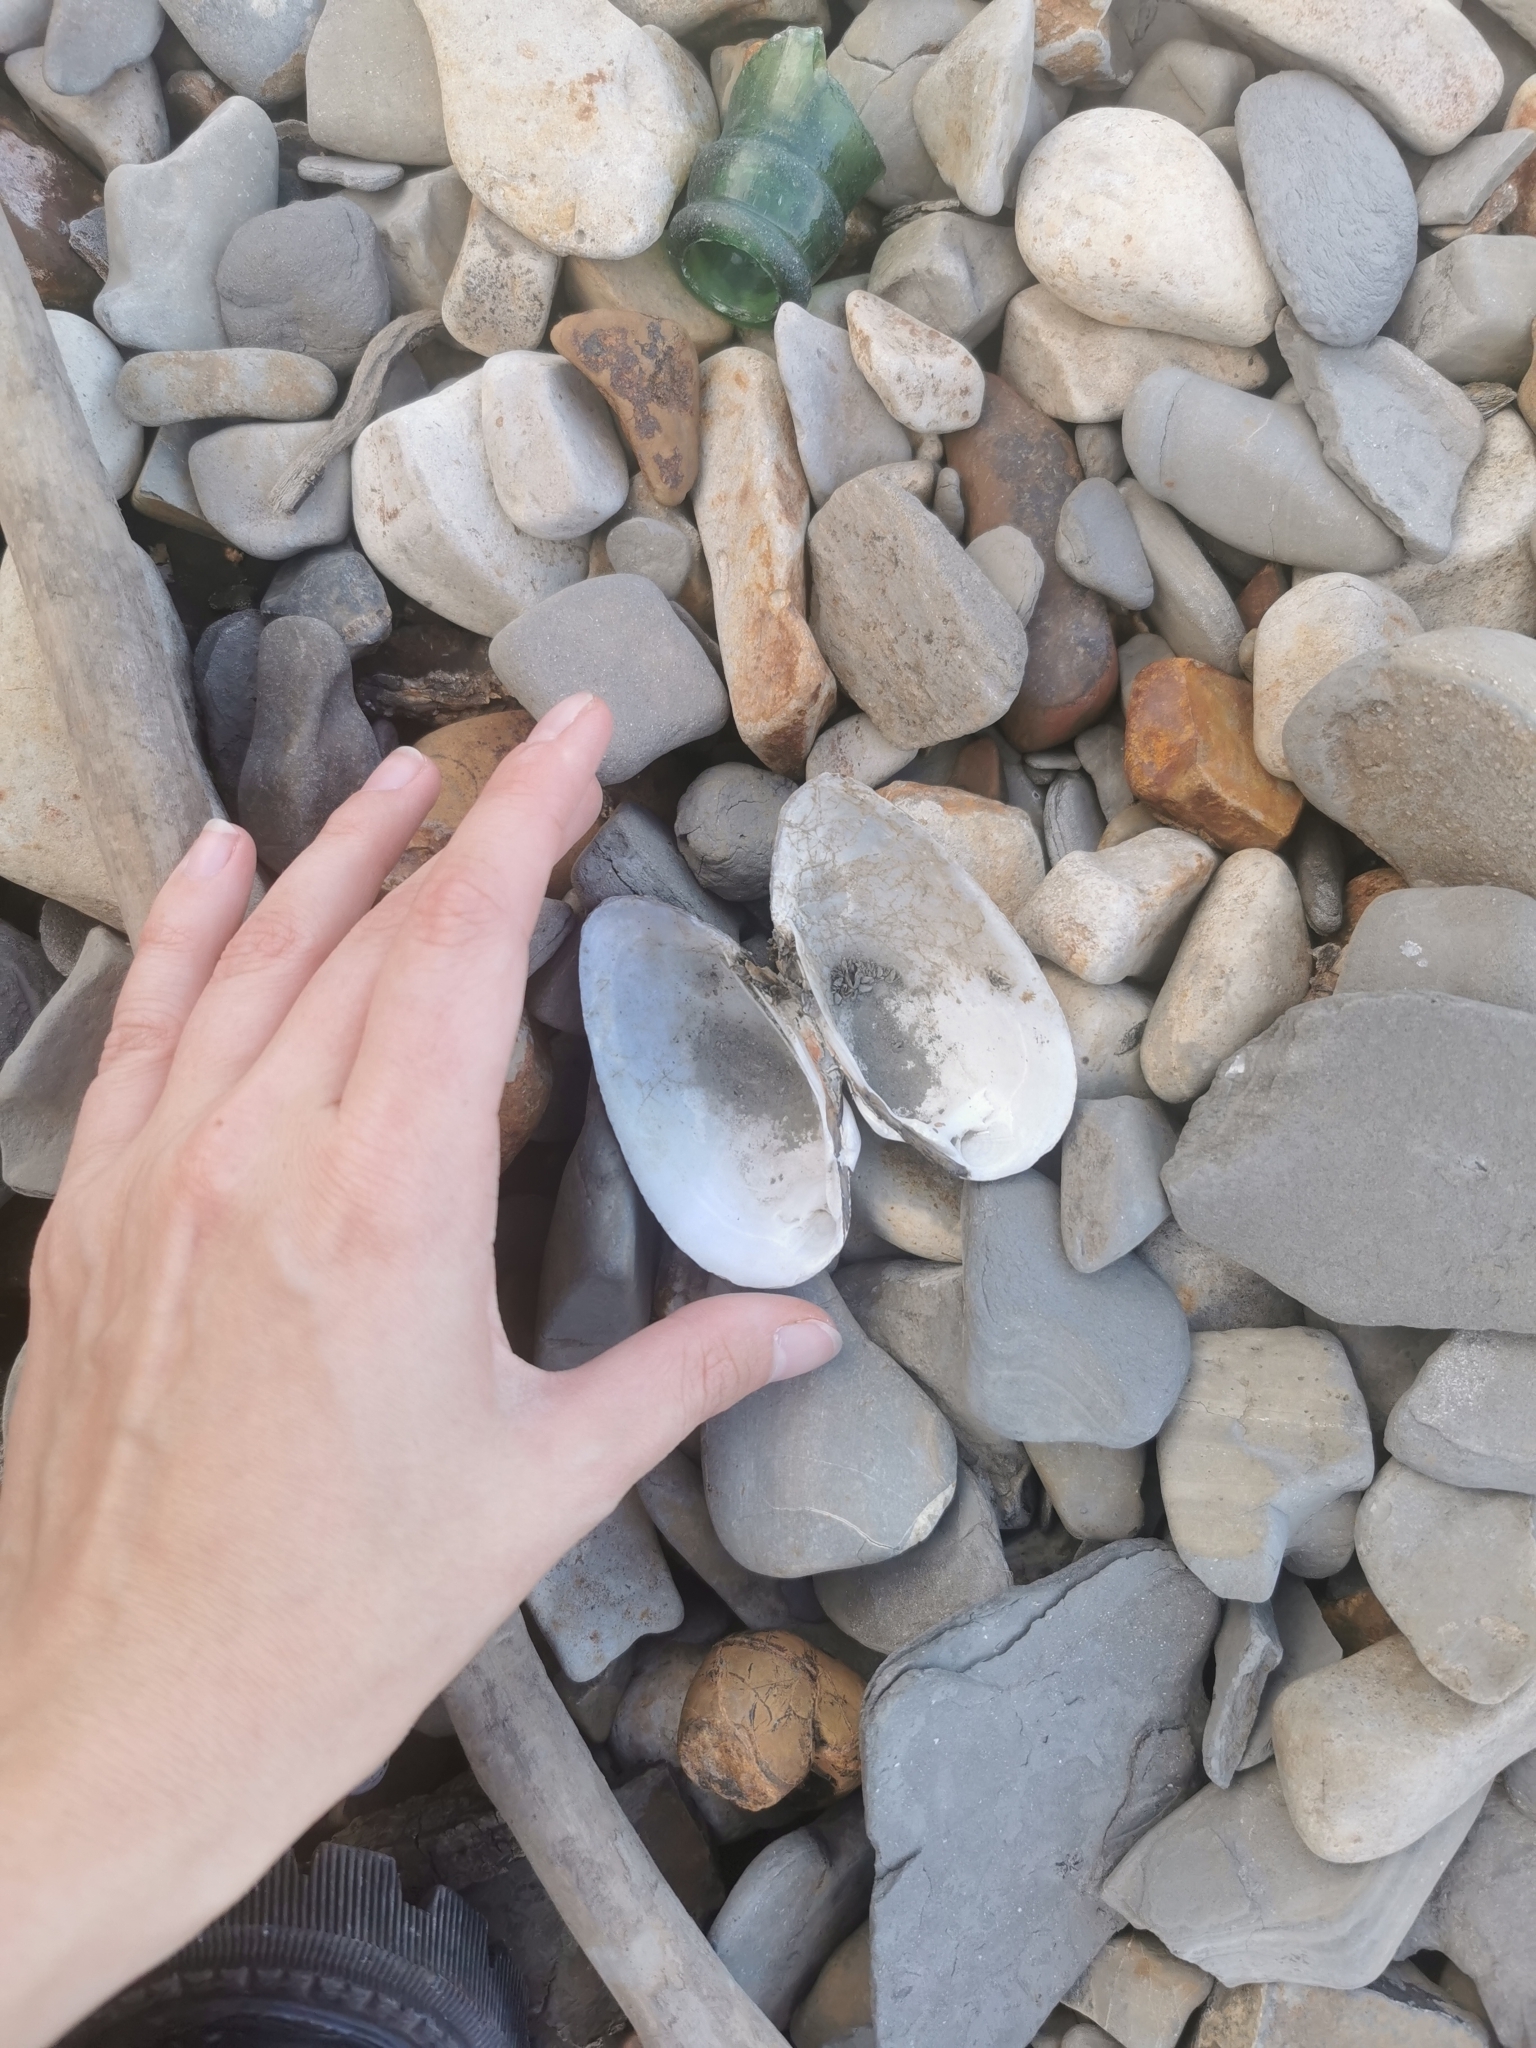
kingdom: Animalia
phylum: Mollusca
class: Bivalvia
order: Unionida
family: Unionidae
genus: Unio
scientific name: Unio tumidus
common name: Swollen river mussel
